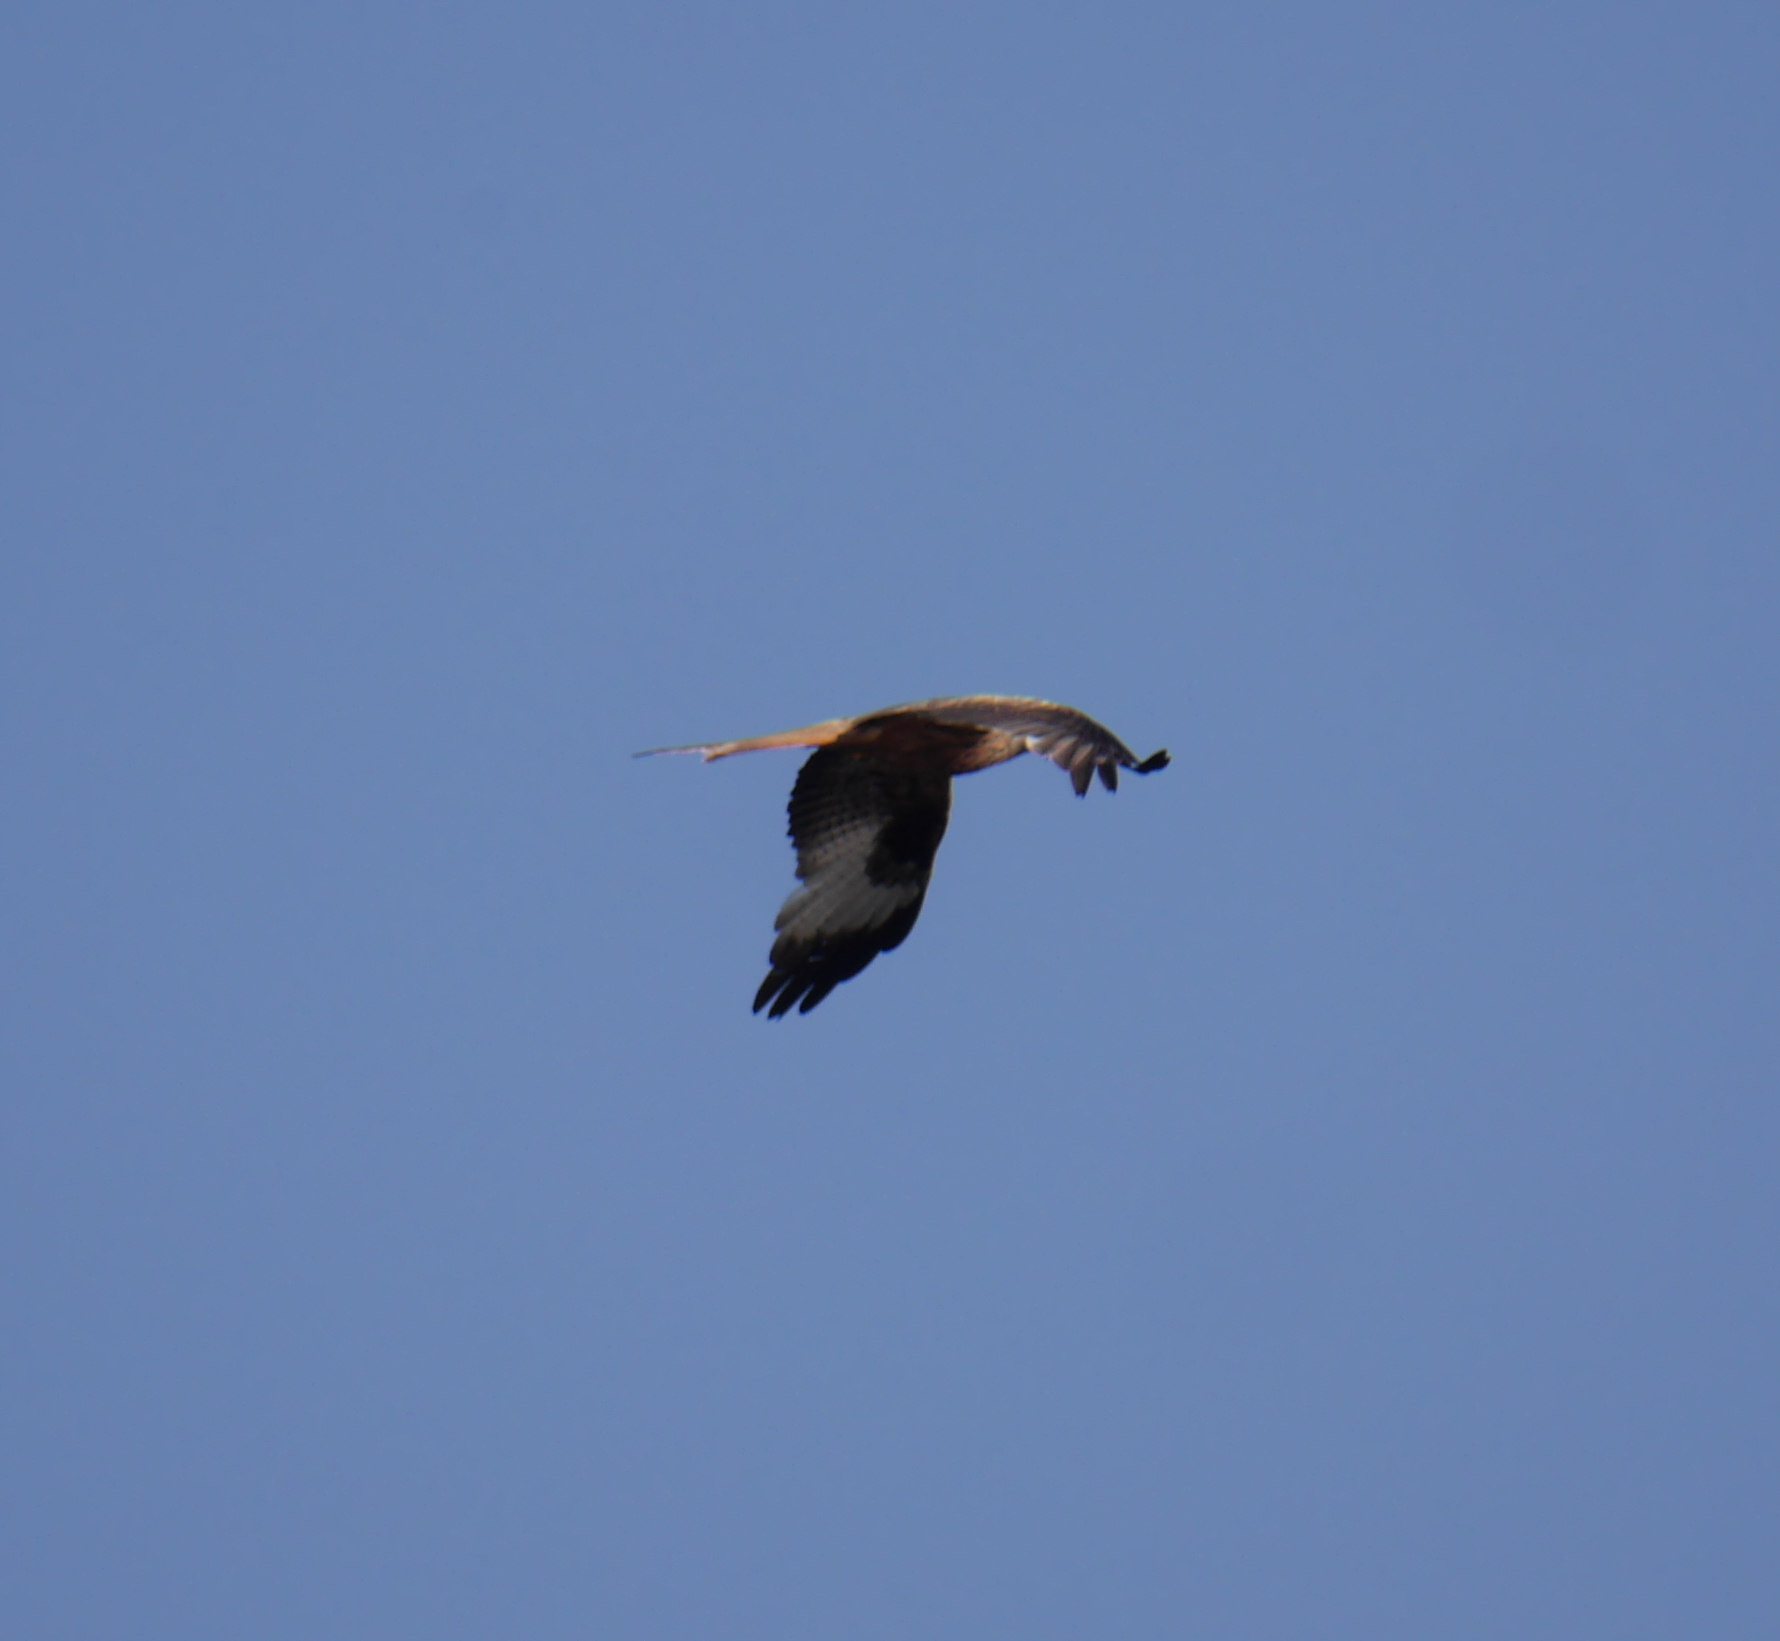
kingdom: Animalia
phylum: Chordata
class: Aves
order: Accipitriformes
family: Accipitridae
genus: Milvus
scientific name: Milvus milvus
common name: Red kite
